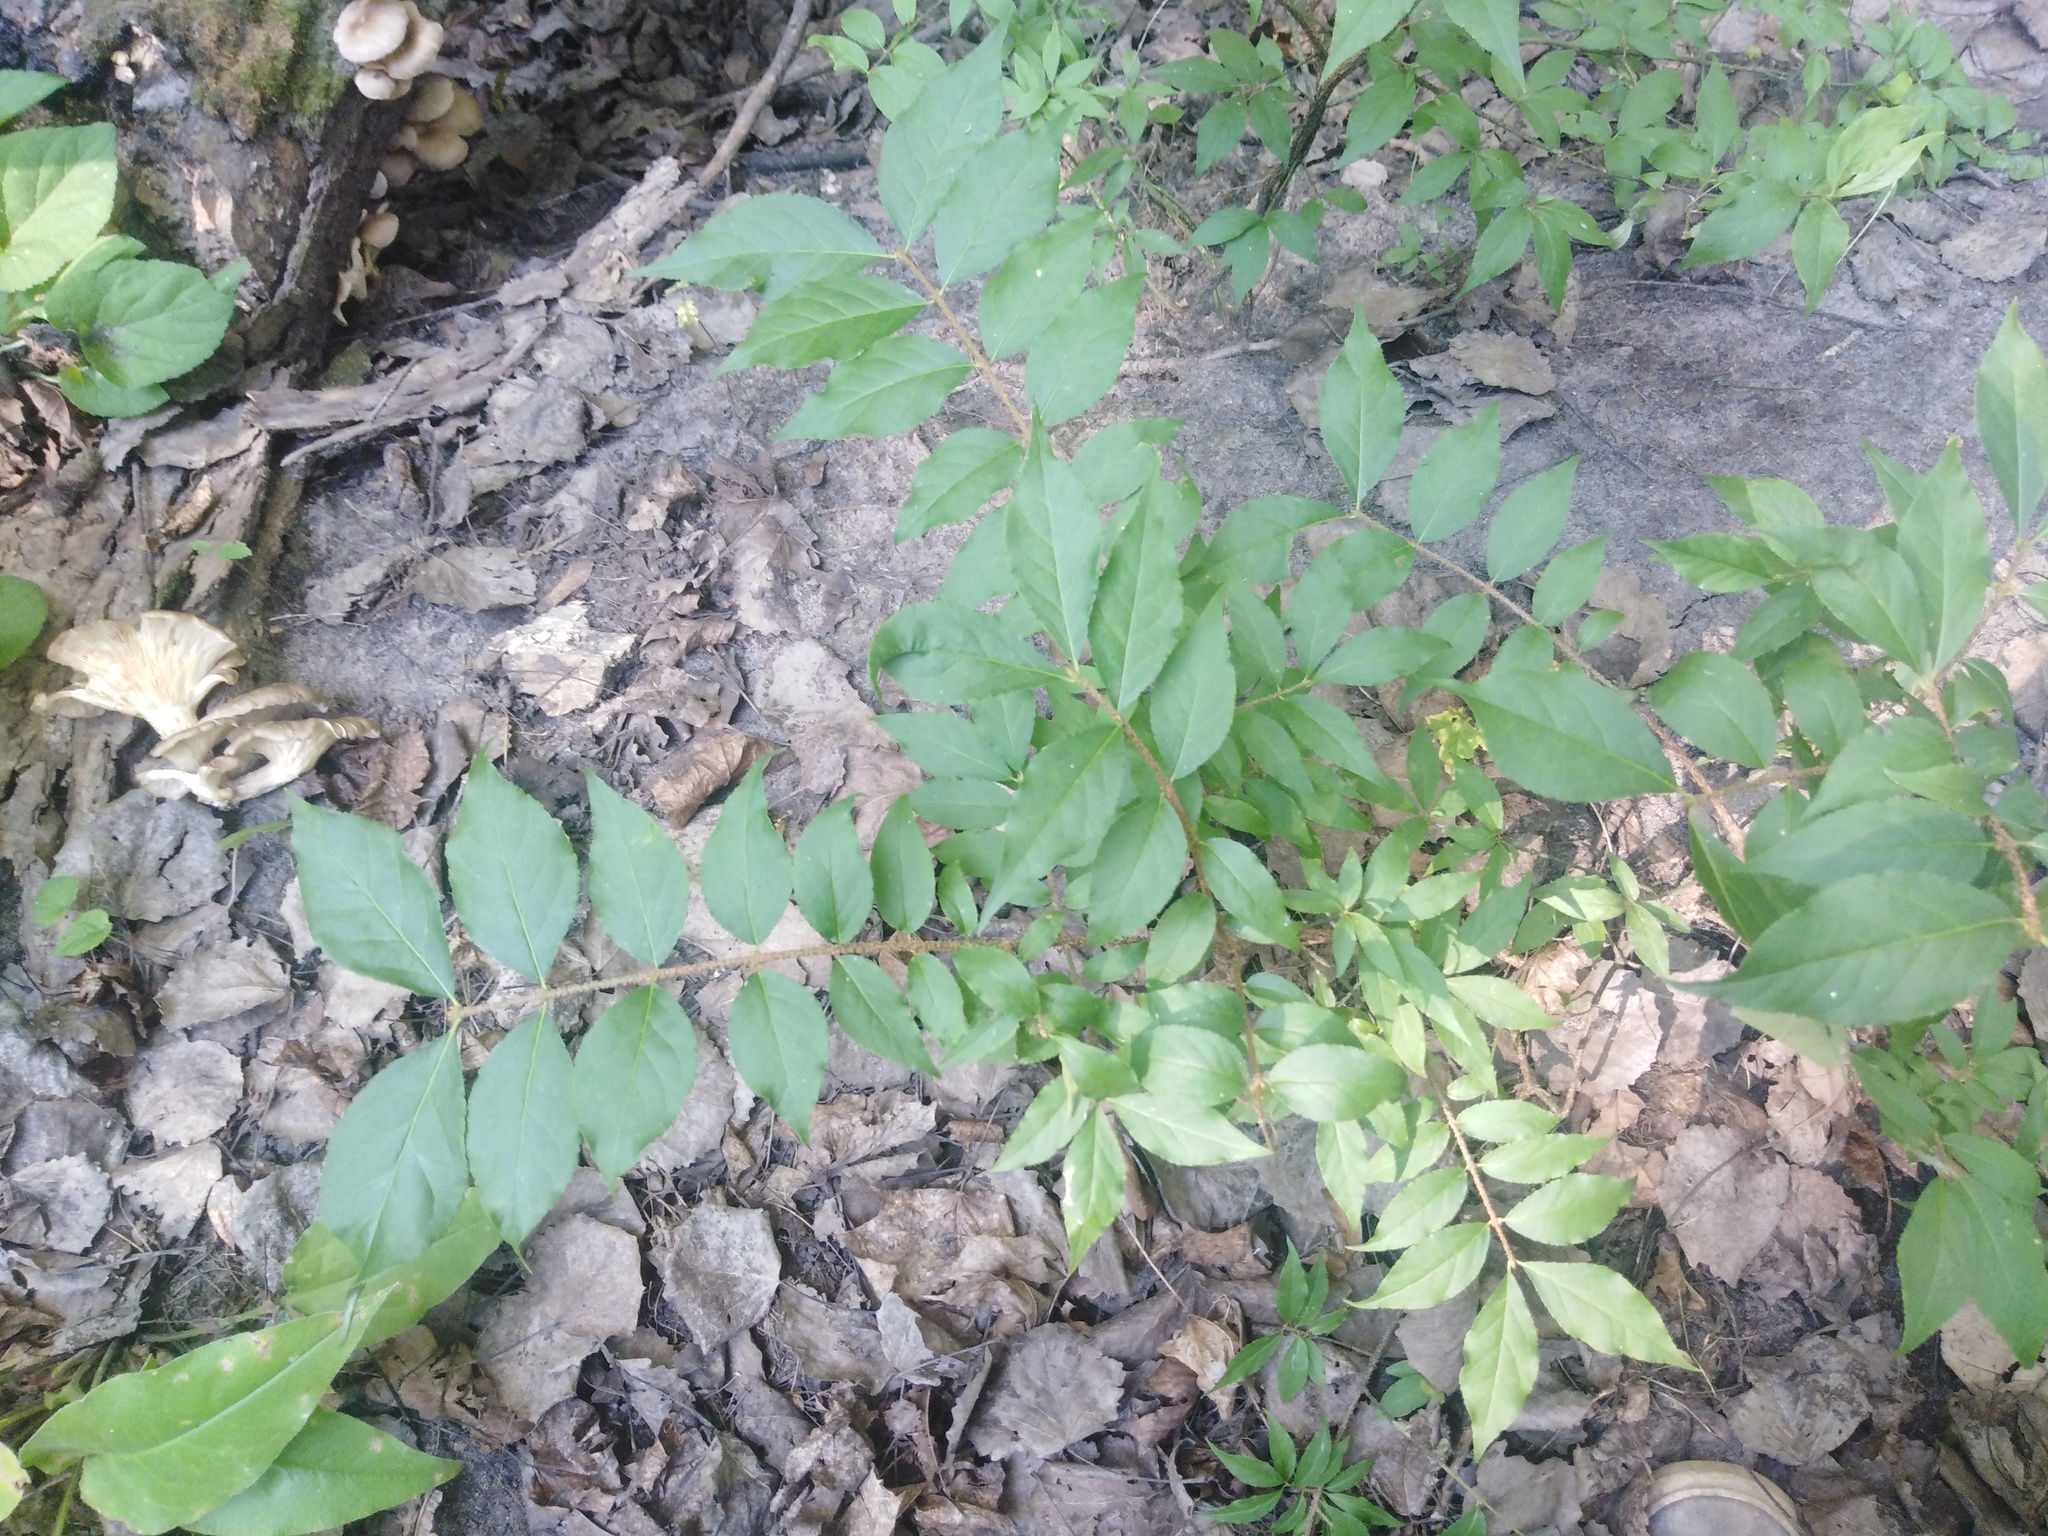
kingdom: Plantae
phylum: Tracheophyta
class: Magnoliopsida
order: Celastrales
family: Celastraceae
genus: Euonymus
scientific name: Euonymus verrucosus
